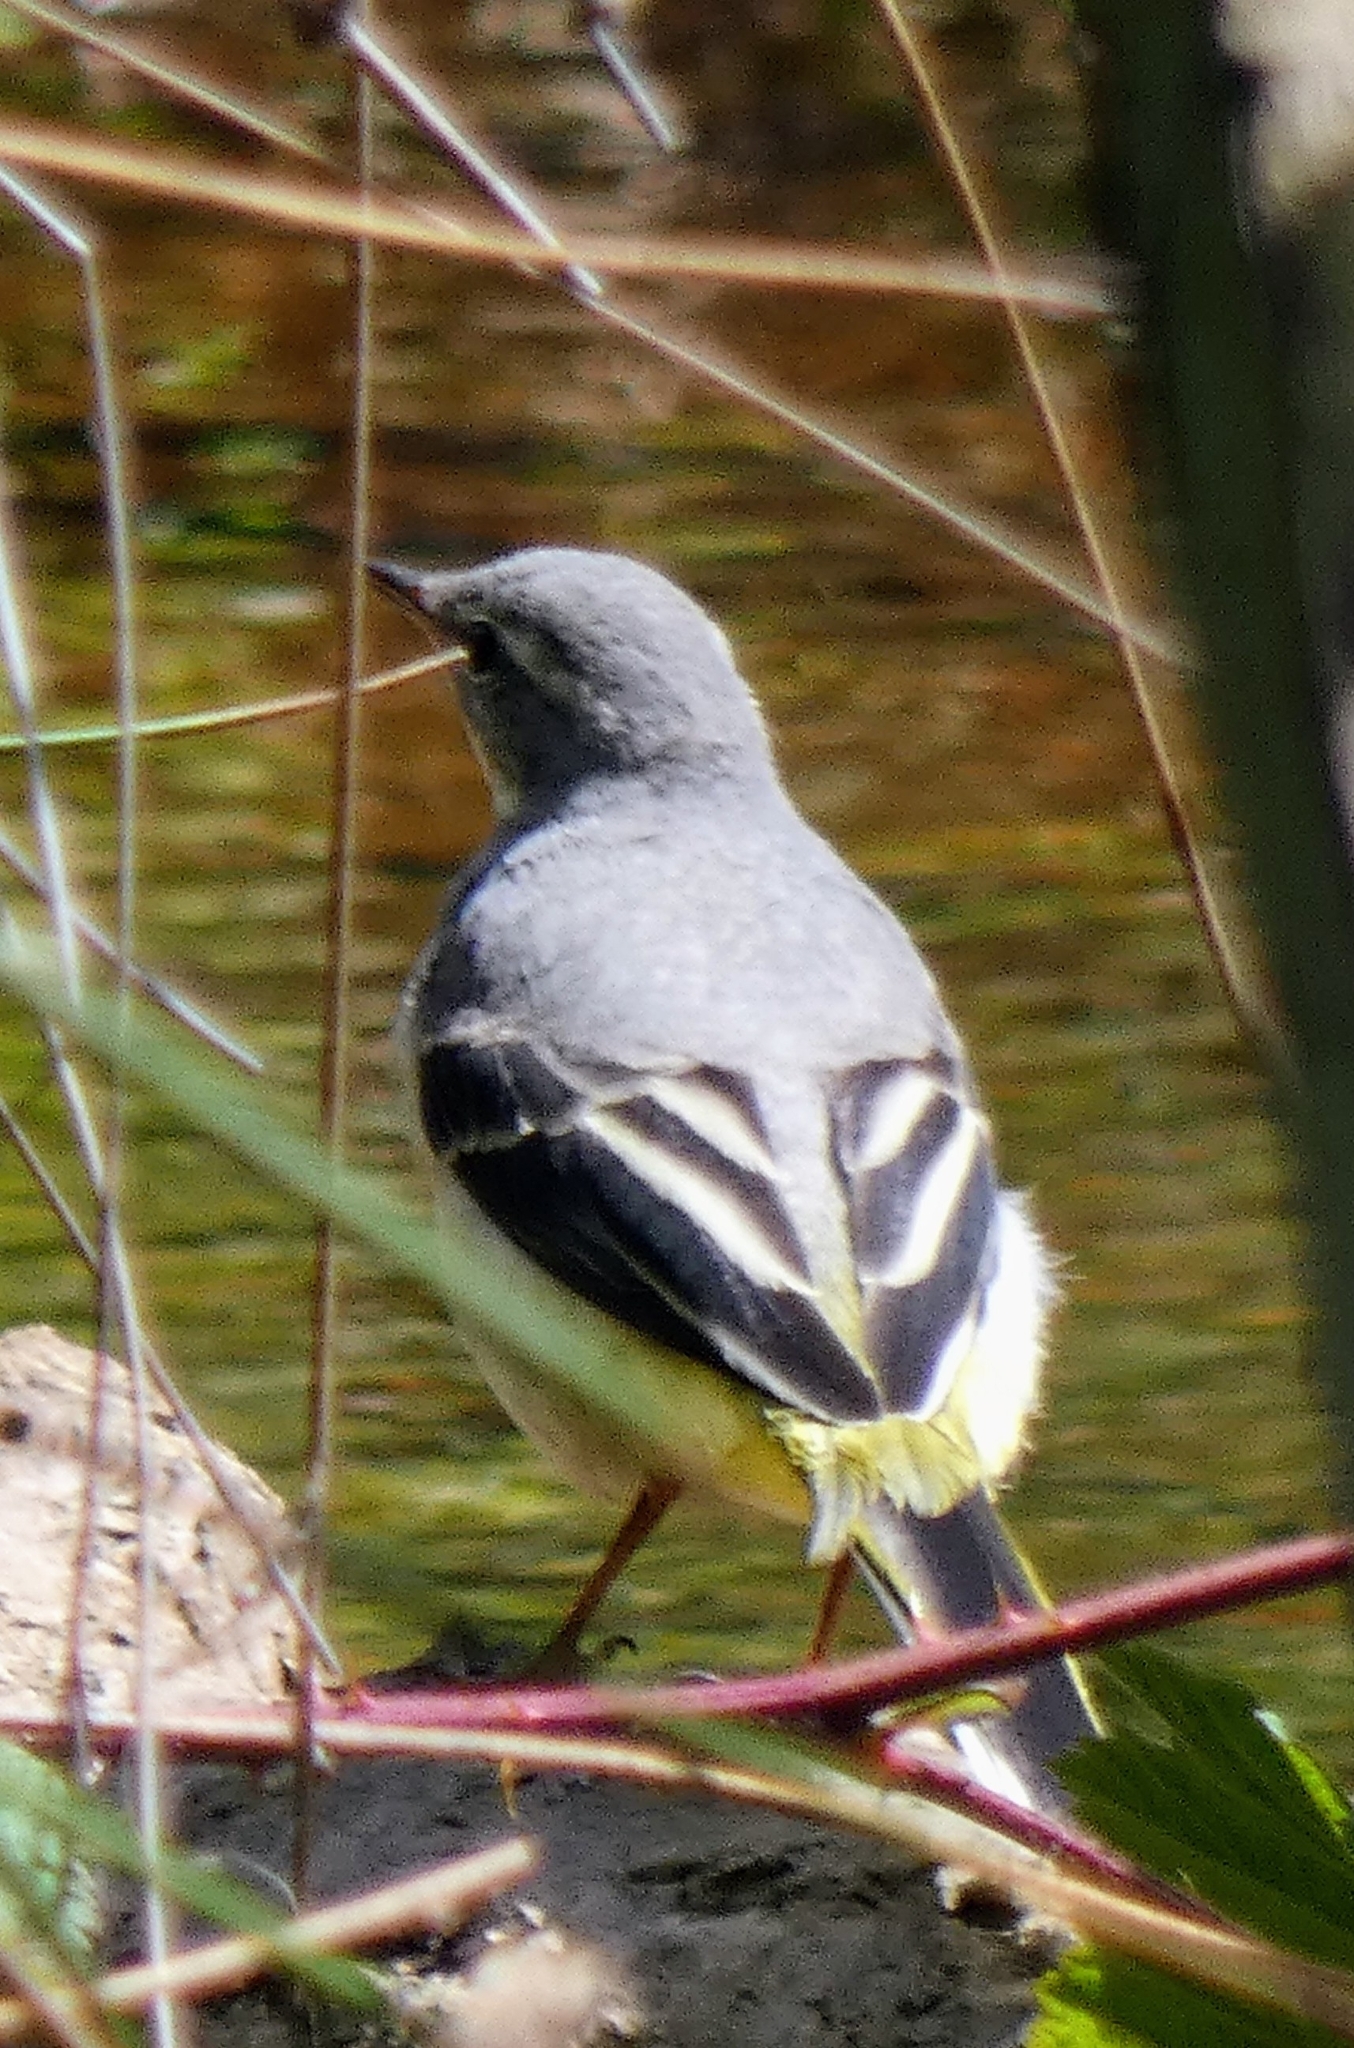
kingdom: Animalia
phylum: Chordata
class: Aves
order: Passeriformes
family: Motacillidae
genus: Motacilla
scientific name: Motacilla cinerea
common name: Grey wagtail
